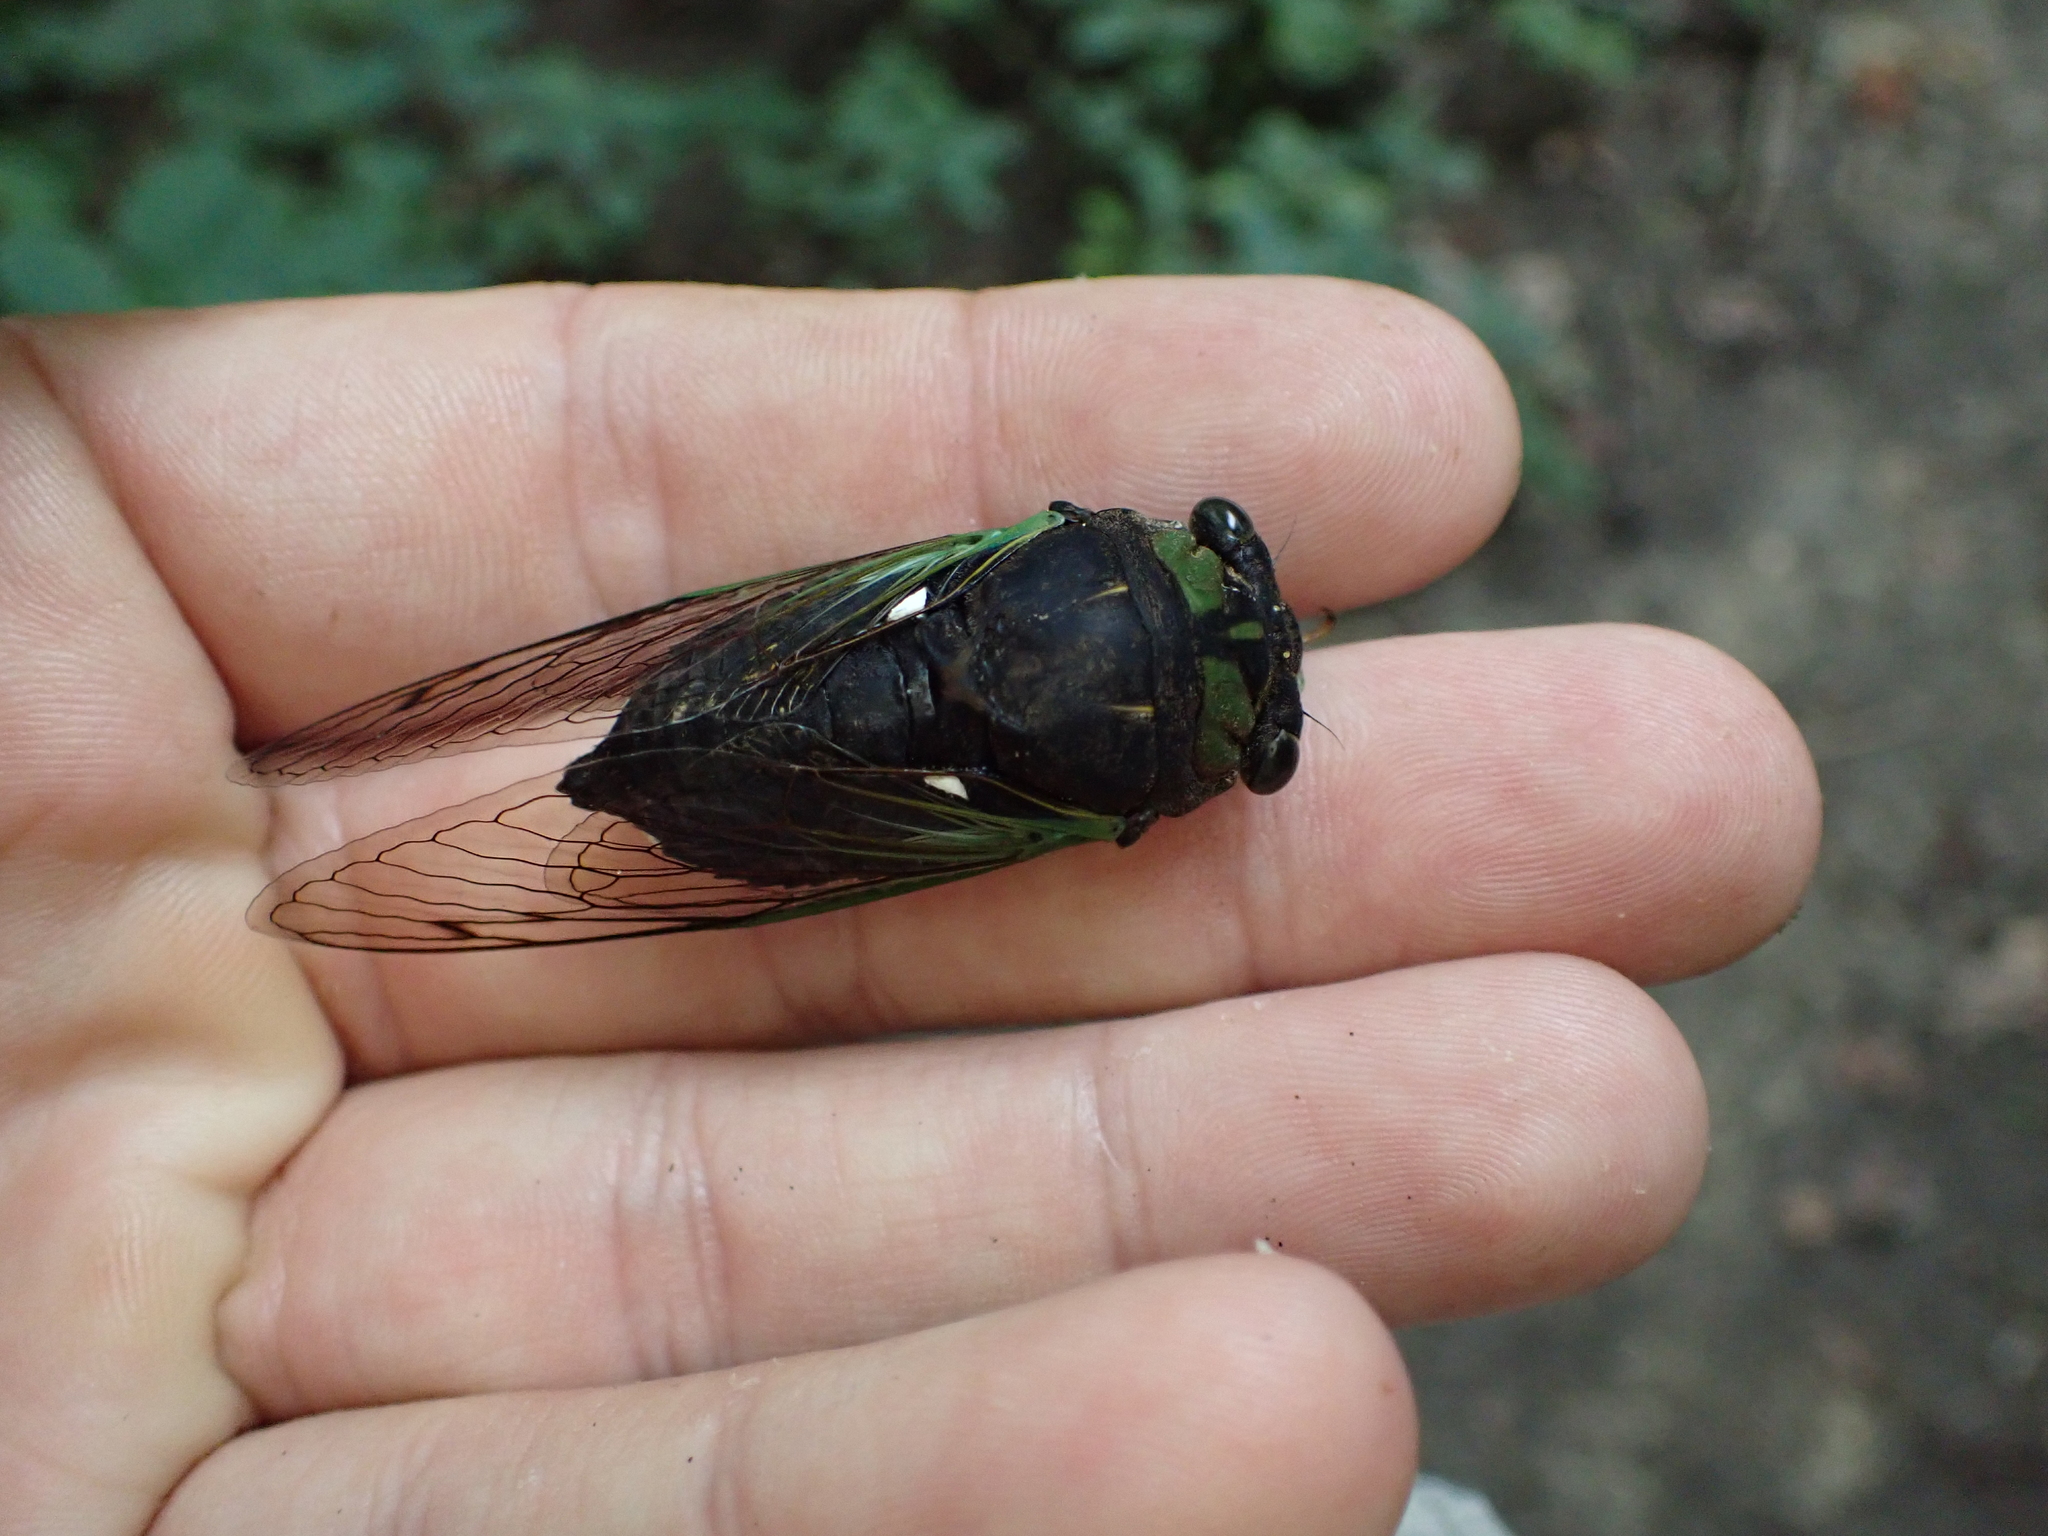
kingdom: Animalia
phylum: Arthropoda
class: Insecta
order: Hemiptera
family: Cicadidae
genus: Neotibicen
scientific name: Neotibicen tibicen
